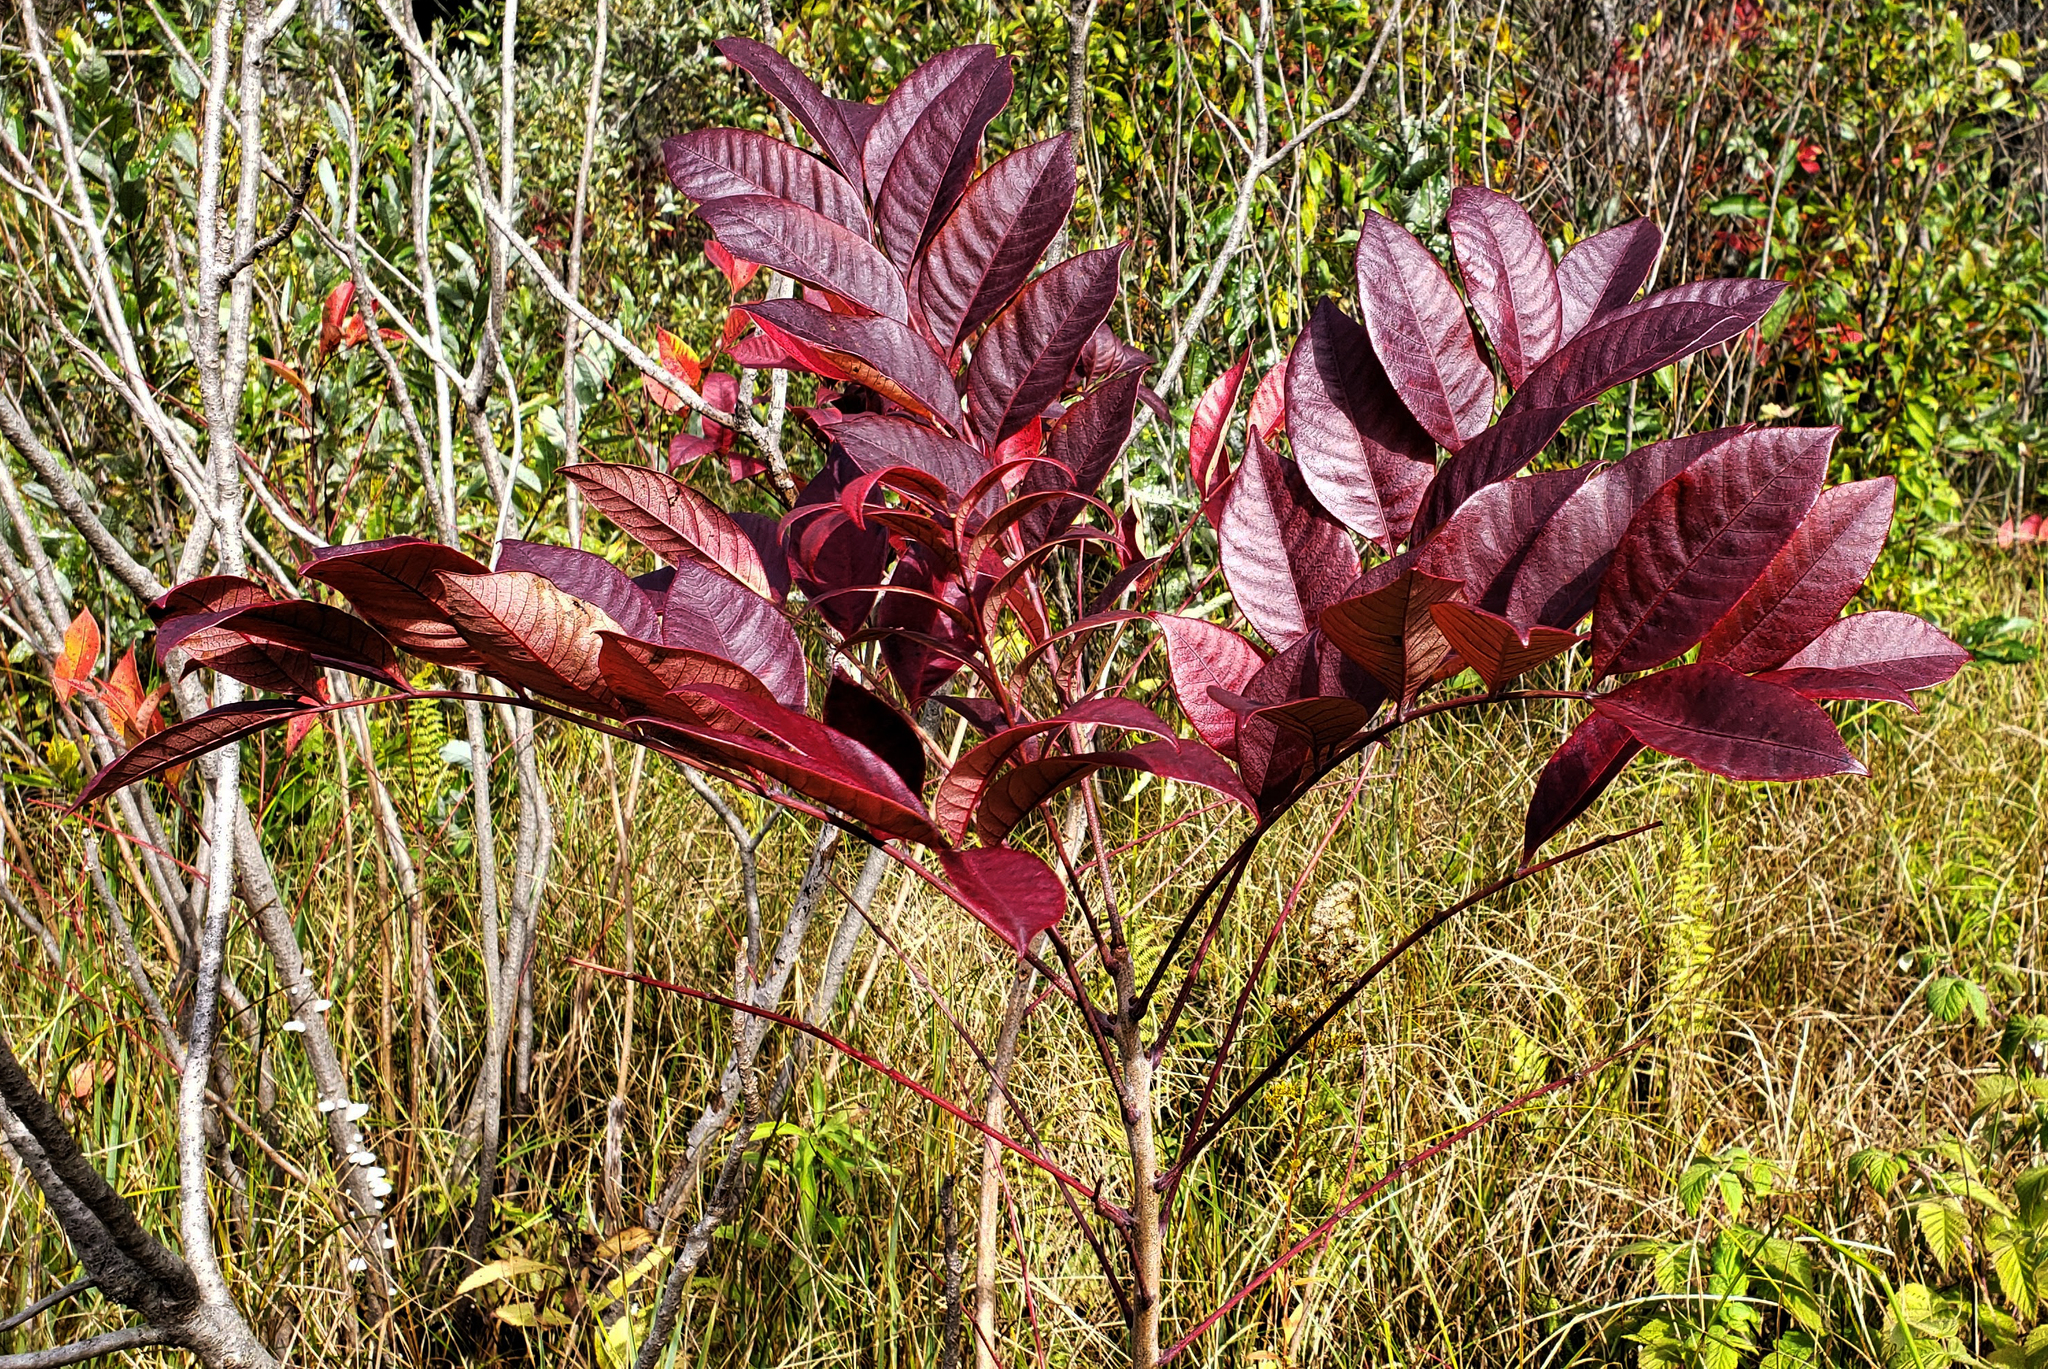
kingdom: Plantae
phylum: Tracheophyta
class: Magnoliopsida
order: Sapindales
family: Anacardiaceae
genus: Toxicodendron
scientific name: Toxicodendron vernix
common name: Poison sumac
